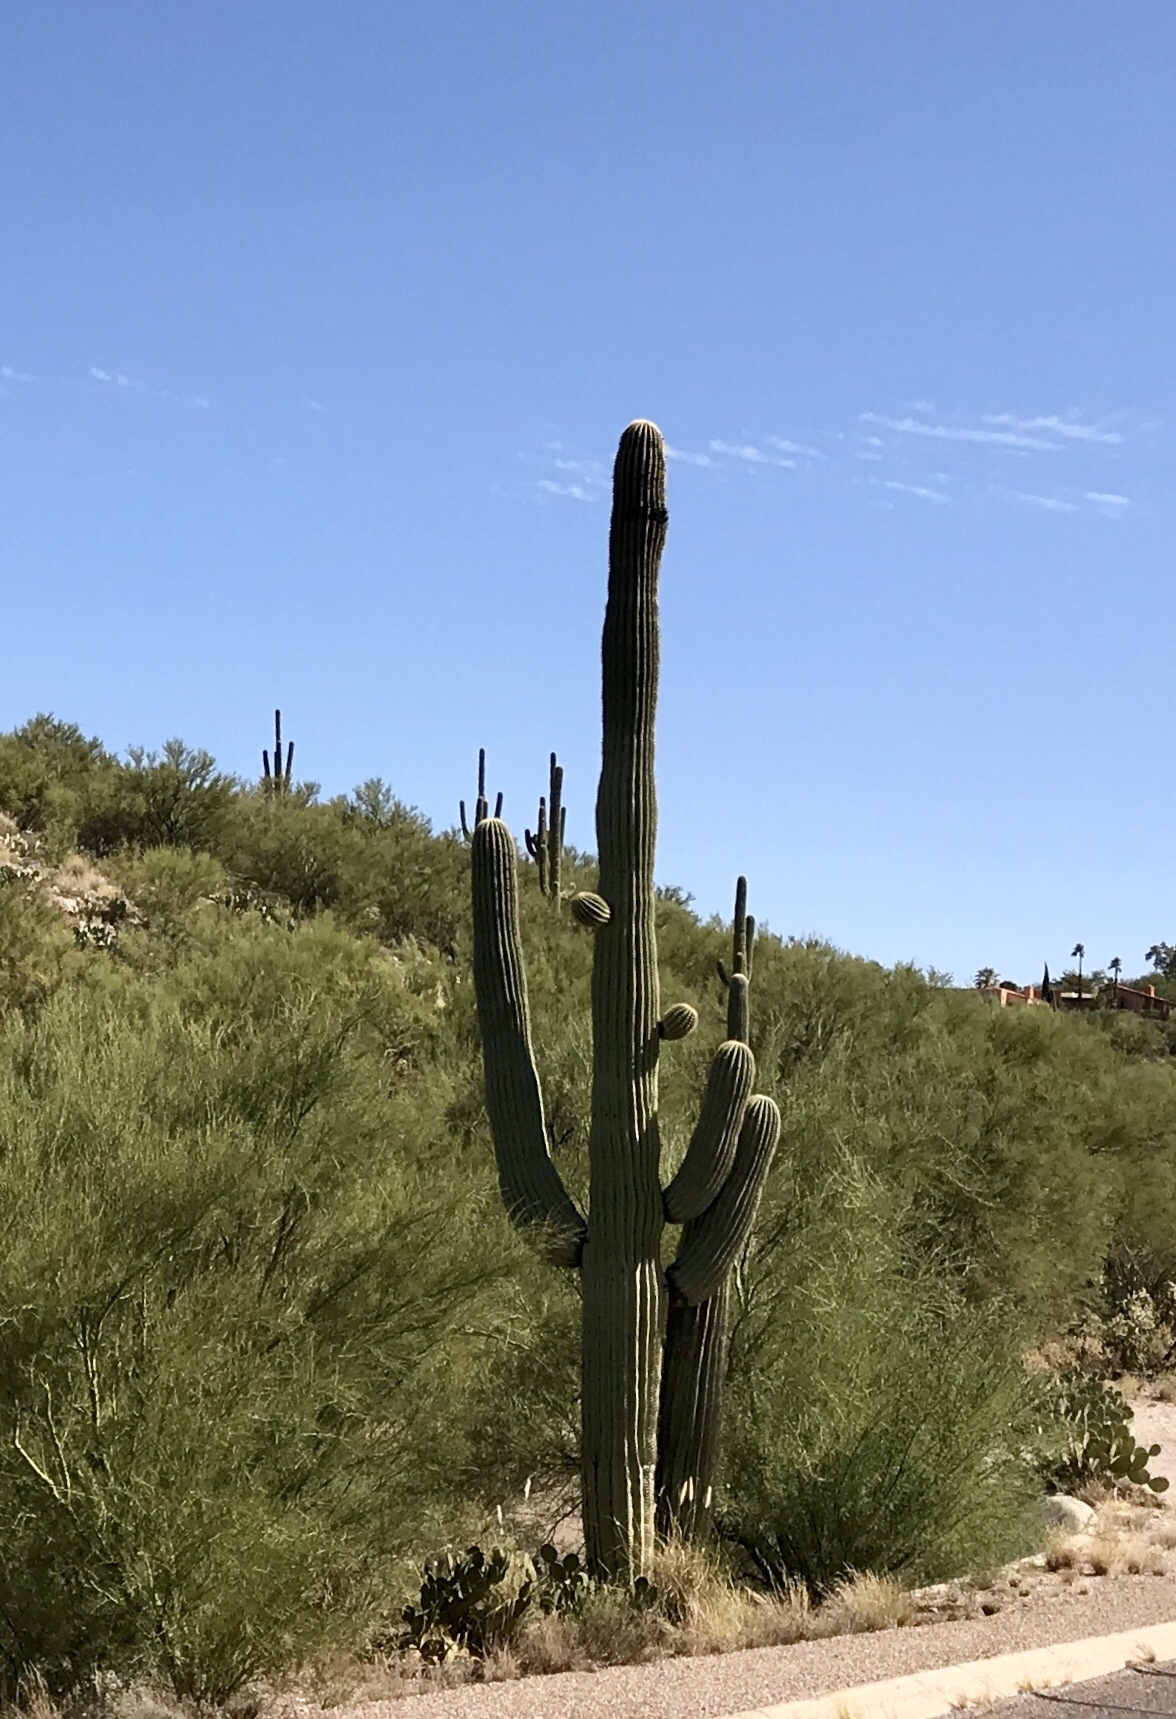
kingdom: Plantae
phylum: Tracheophyta
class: Magnoliopsida
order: Caryophyllales
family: Cactaceae
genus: Carnegiea
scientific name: Carnegiea gigantea
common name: Saguaro
